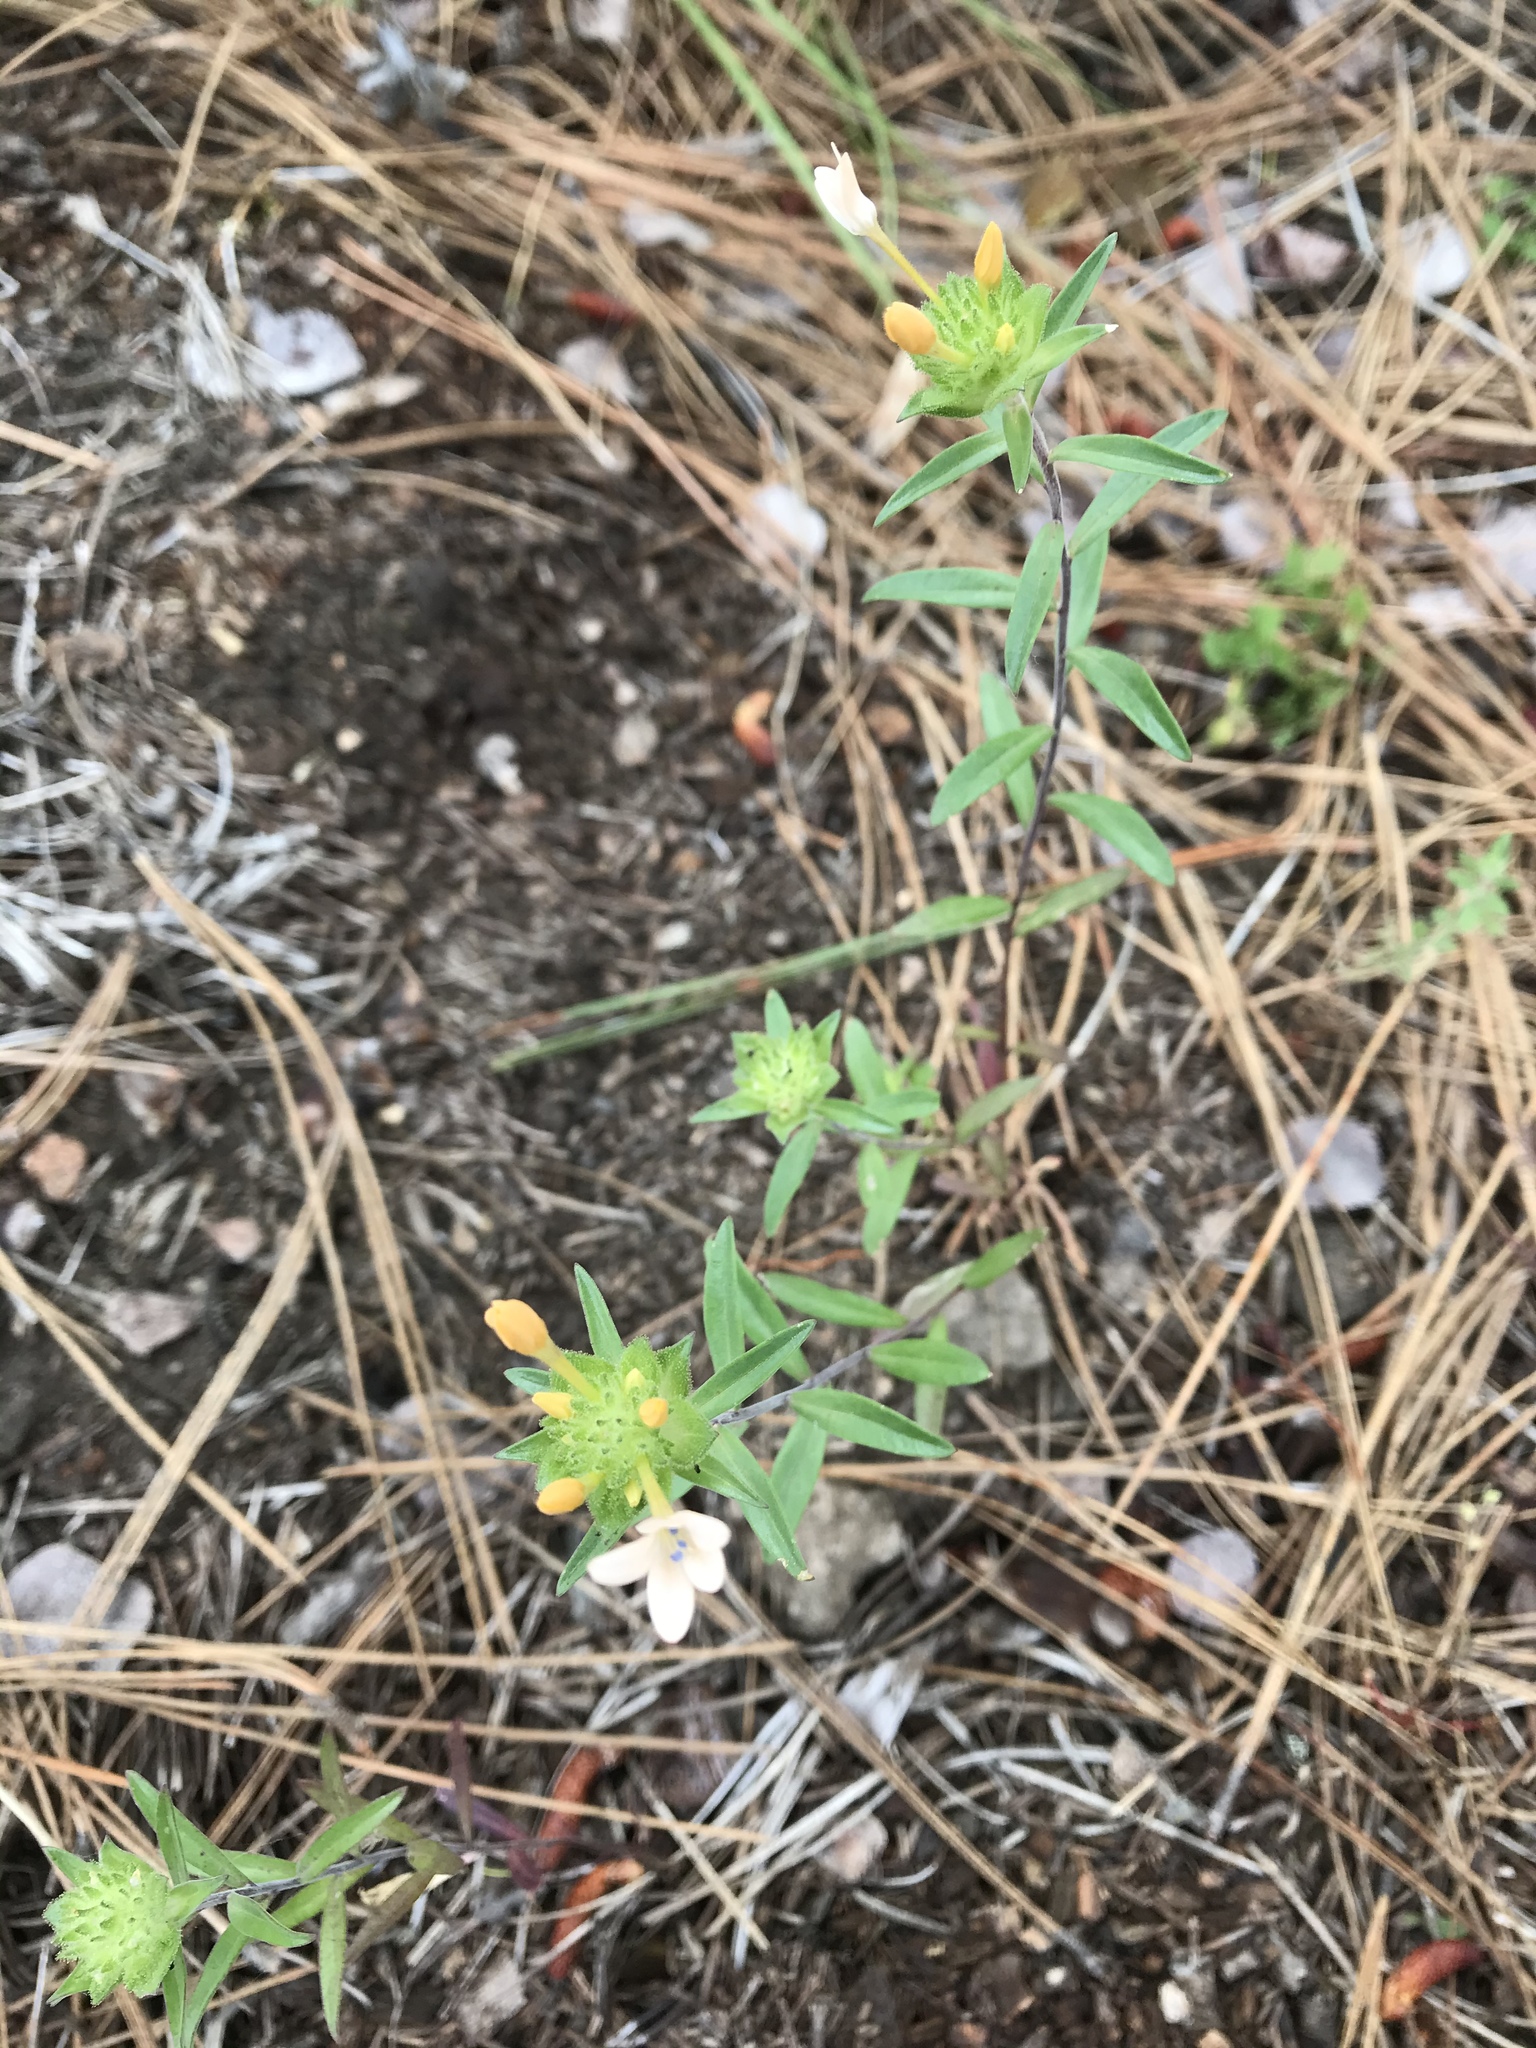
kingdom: Plantae
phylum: Tracheophyta
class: Magnoliopsida
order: Ericales
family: Polemoniaceae
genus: Collomia
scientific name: Collomia grandiflora
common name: California strawflower
